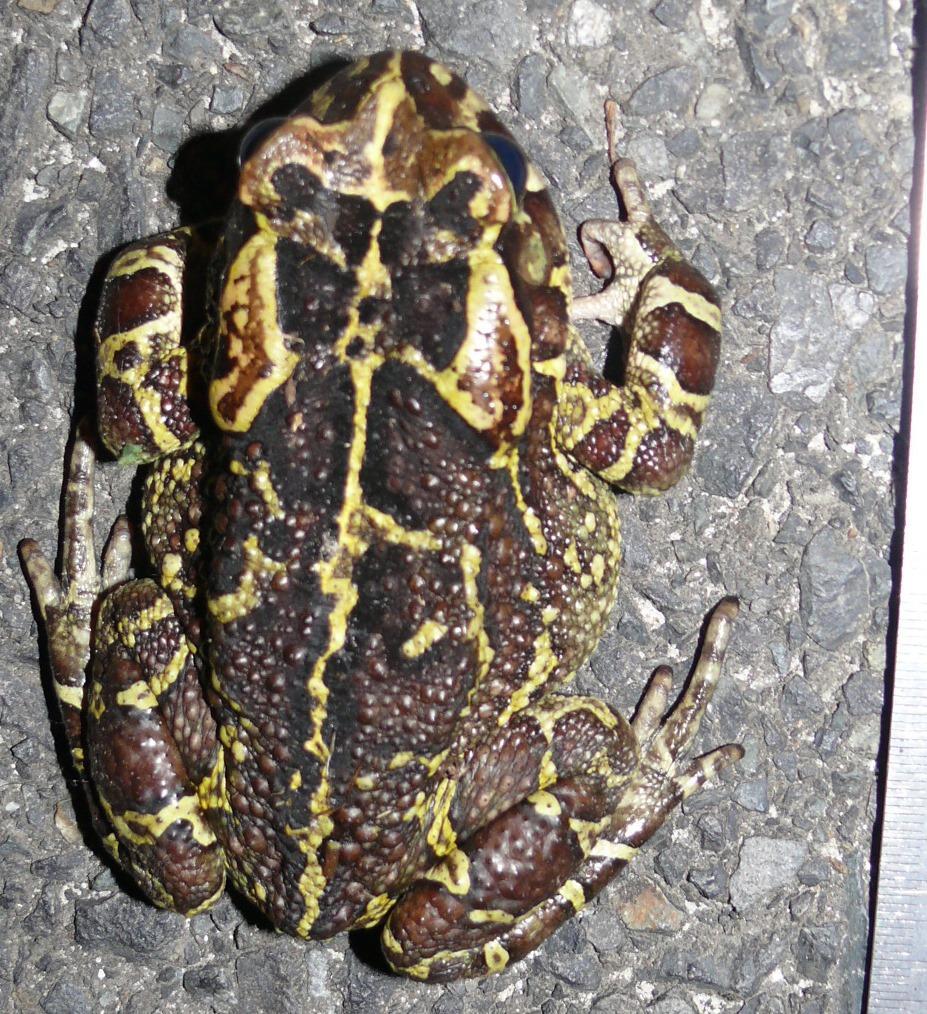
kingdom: Animalia
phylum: Chordata
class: Amphibia
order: Anura
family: Bufonidae
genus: Sclerophrys
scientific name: Sclerophrys pantherina
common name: Panther toad
